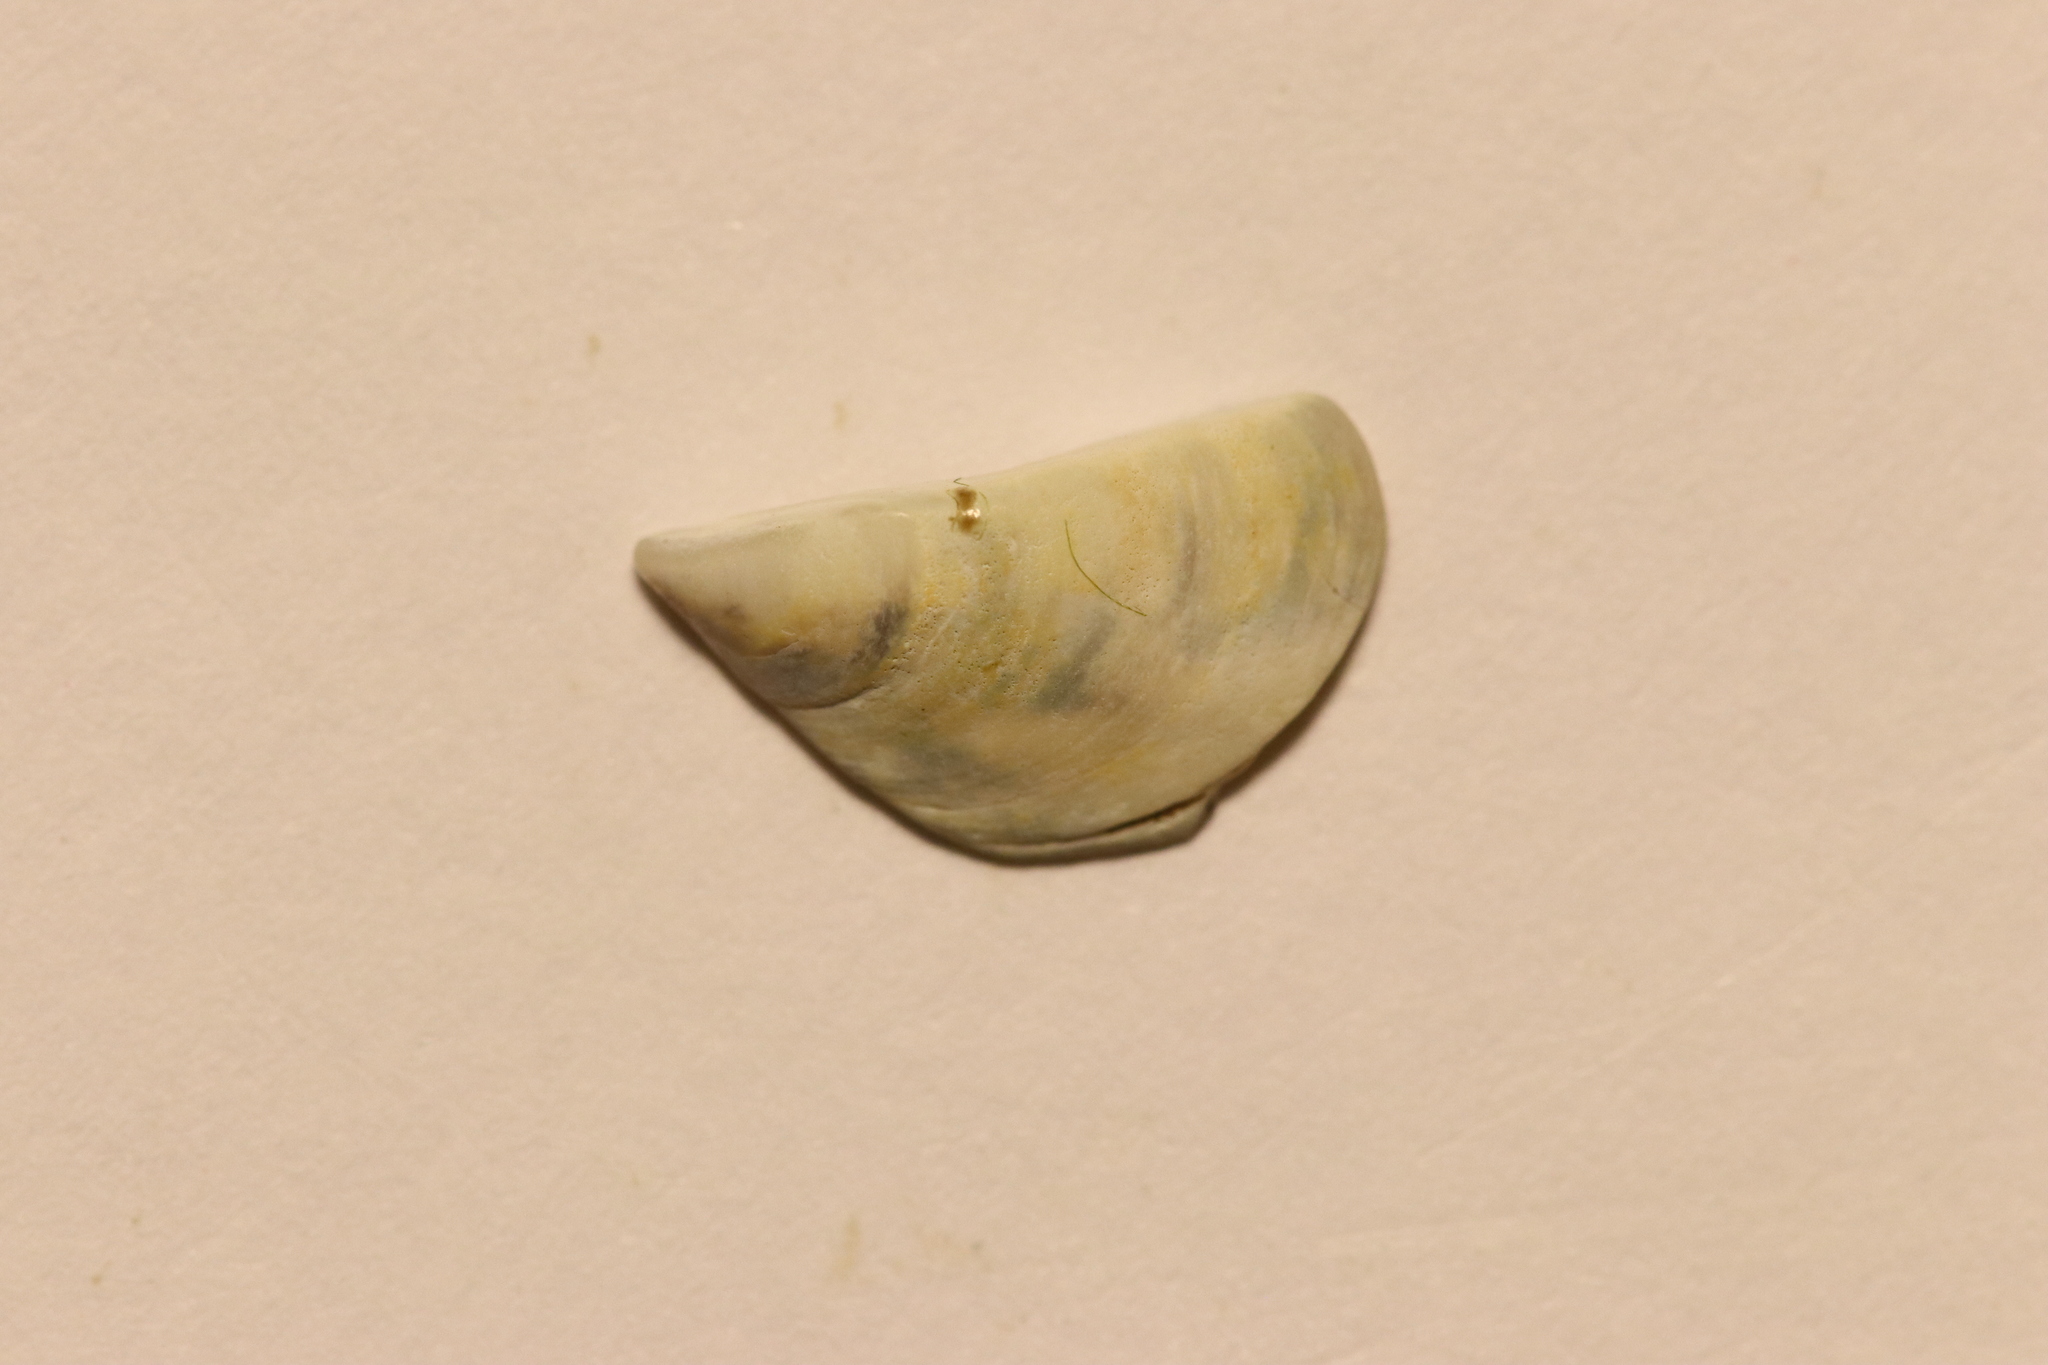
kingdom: Animalia
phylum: Mollusca
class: Bivalvia
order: Myida
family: Dreissenidae
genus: Dreissena
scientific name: Dreissena polymorpha
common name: Zebra mussel
